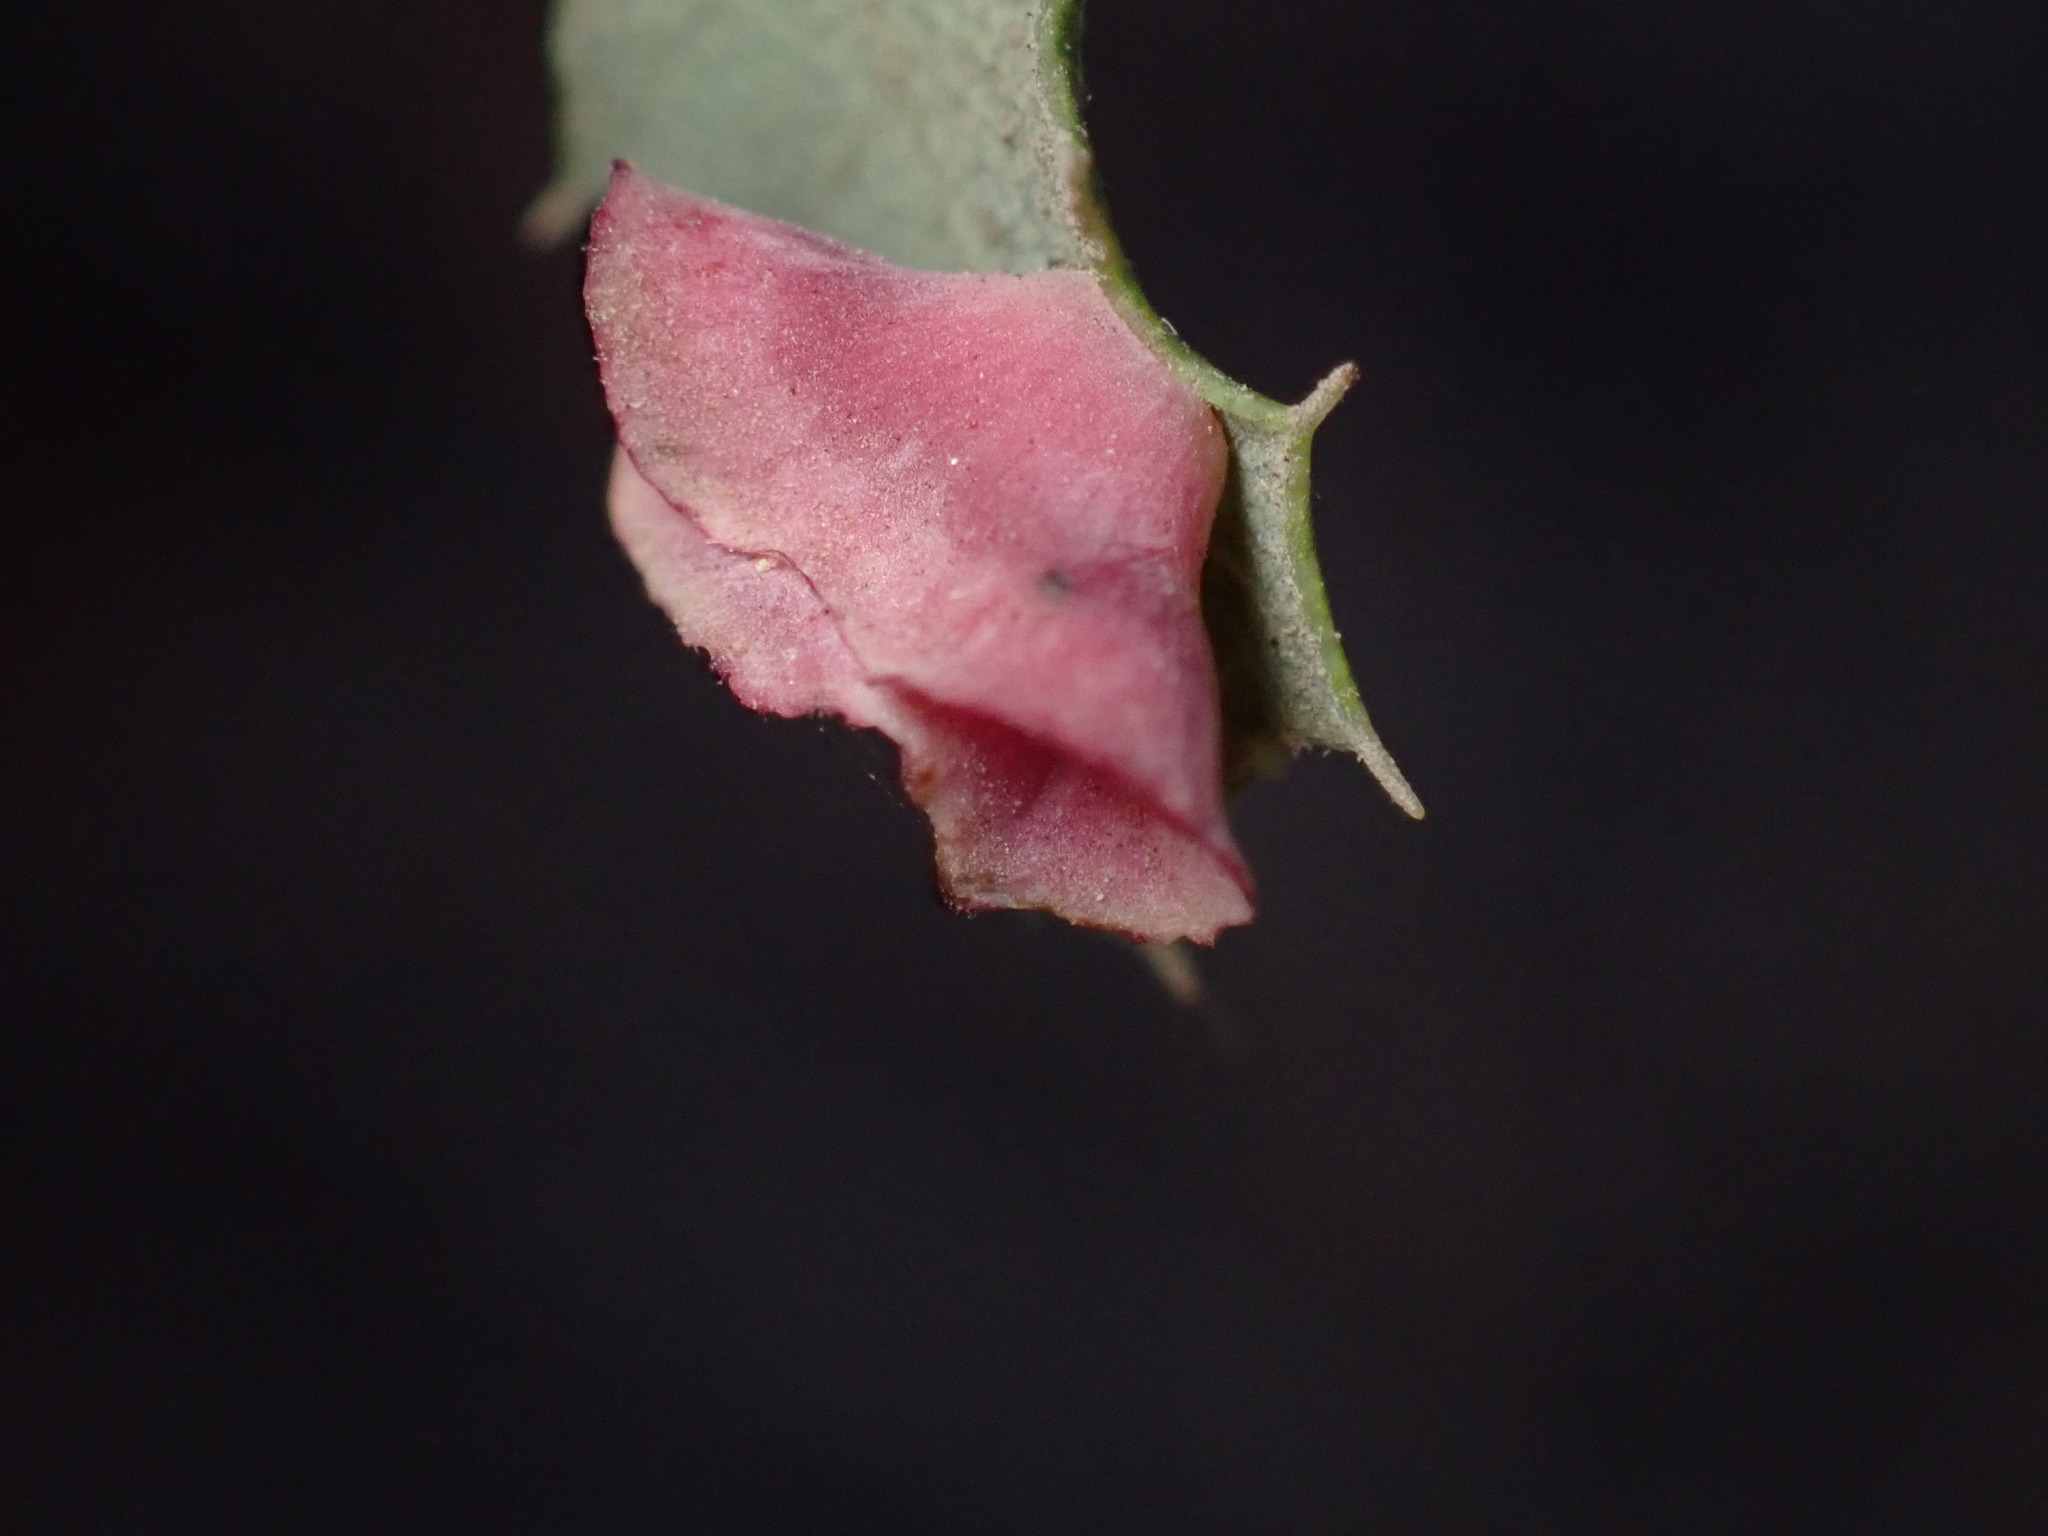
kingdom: Animalia
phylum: Arthropoda
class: Insecta
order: Hymenoptera
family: Cynipidae
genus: Andricus
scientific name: Andricus
